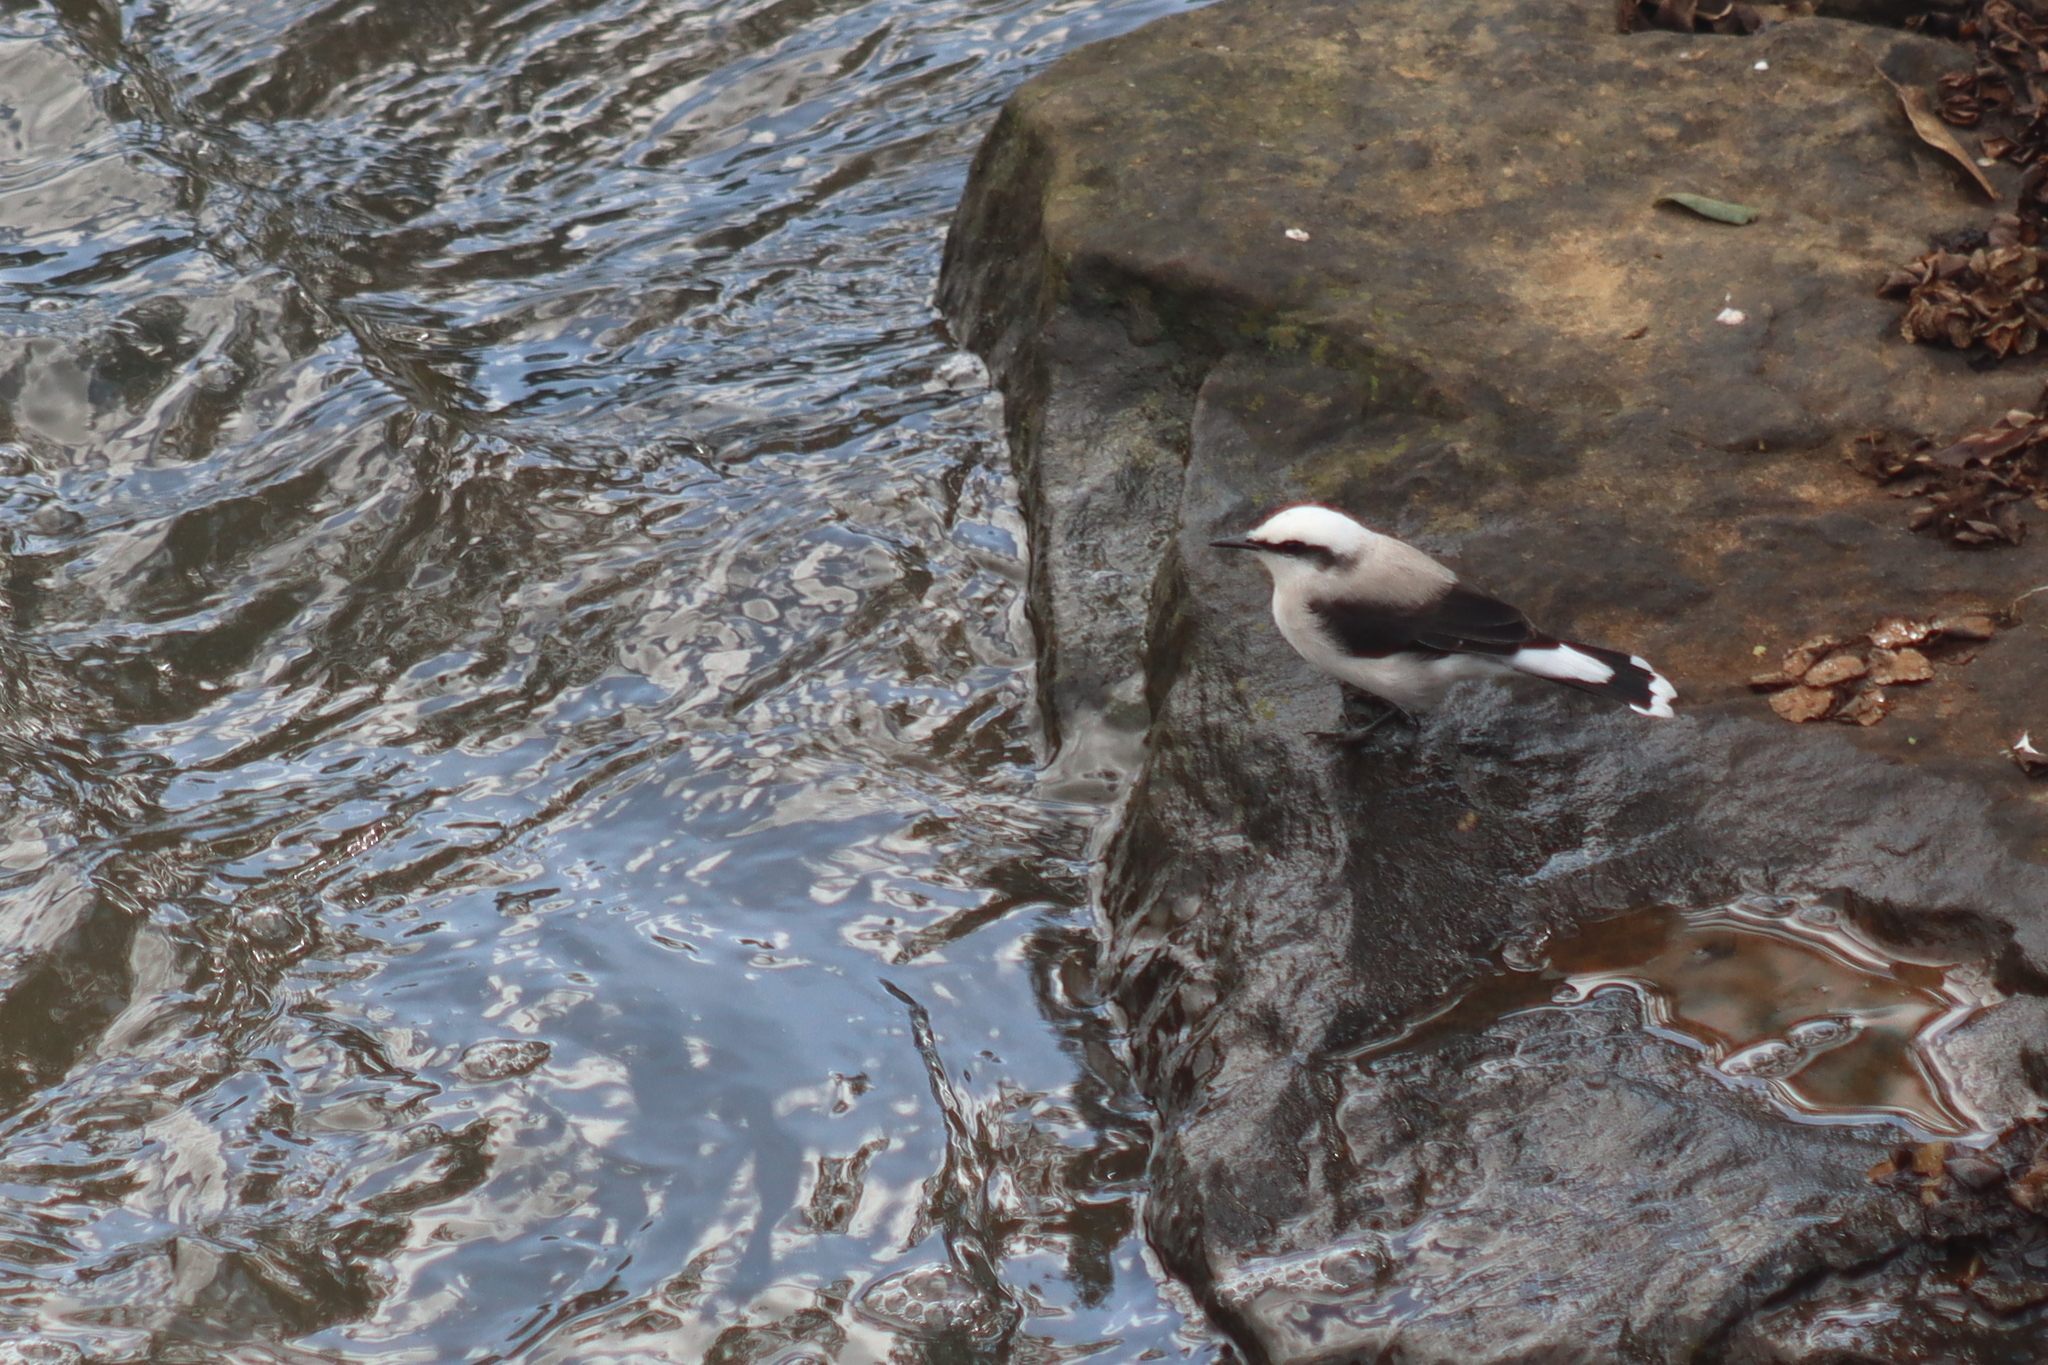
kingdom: Animalia
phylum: Chordata
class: Aves
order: Passeriformes
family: Tyrannidae
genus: Fluvicola
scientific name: Fluvicola nengeta
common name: Masked water tyrant
